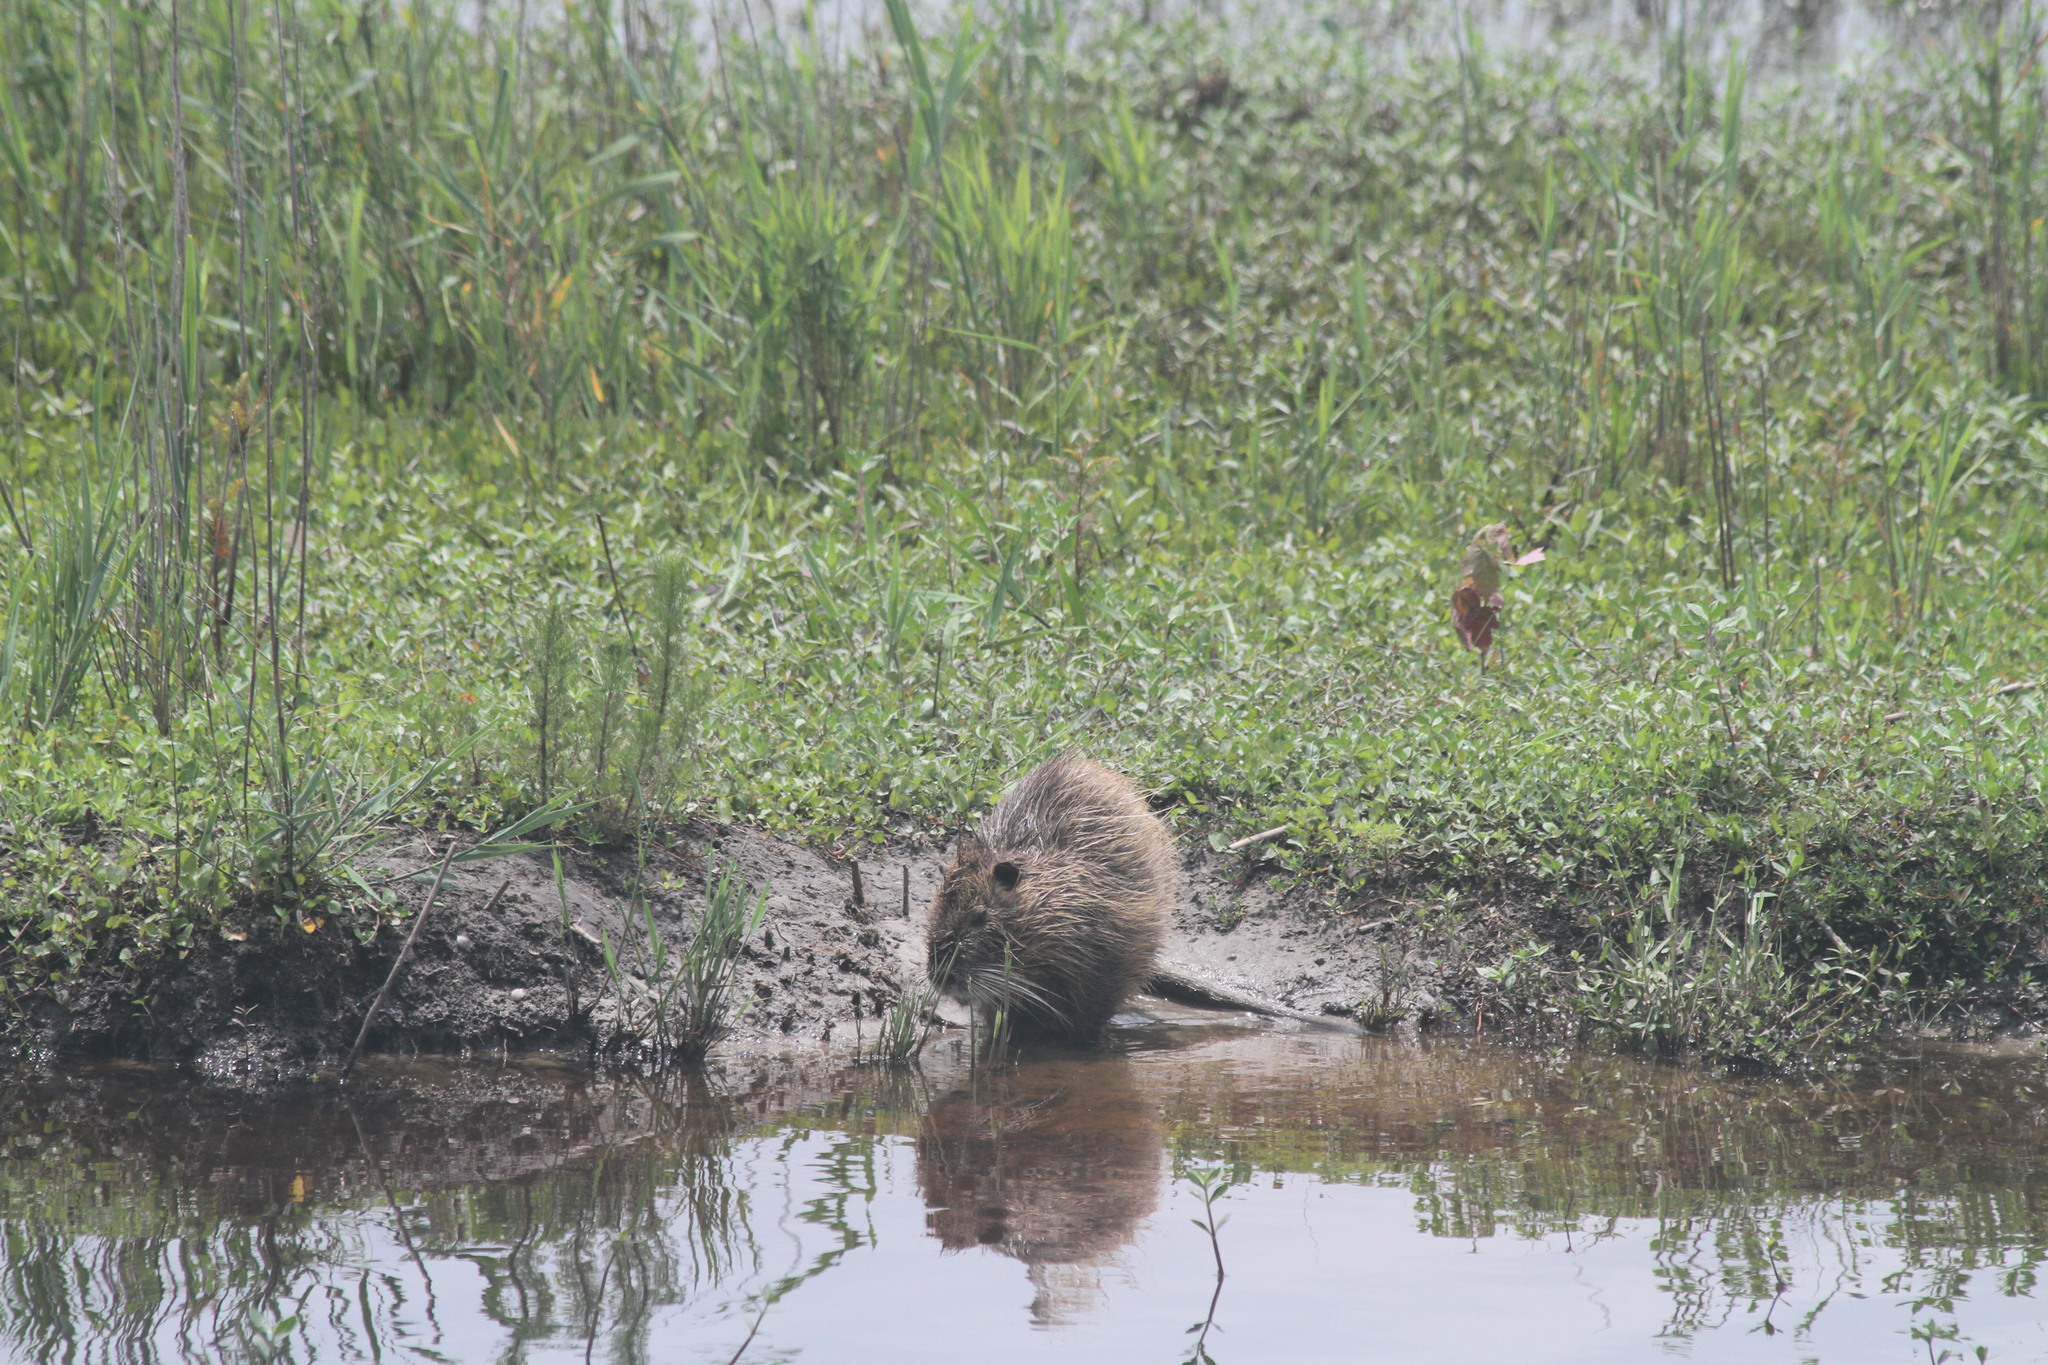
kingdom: Animalia
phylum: Chordata
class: Mammalia
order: Rodentia
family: Myocastoridae
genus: Myocastor
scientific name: Myocastor coypus
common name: Coypu
